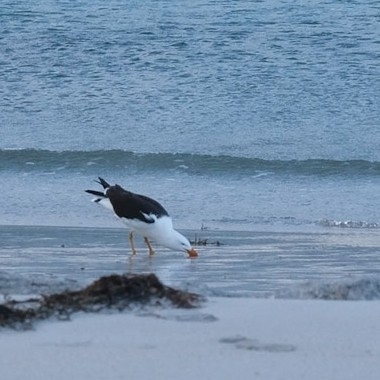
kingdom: Animalia
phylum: Chordata
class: Aves
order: Charadriiformes
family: Laridae
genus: Larus
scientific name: Larus pacificus
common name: Pacific gull
